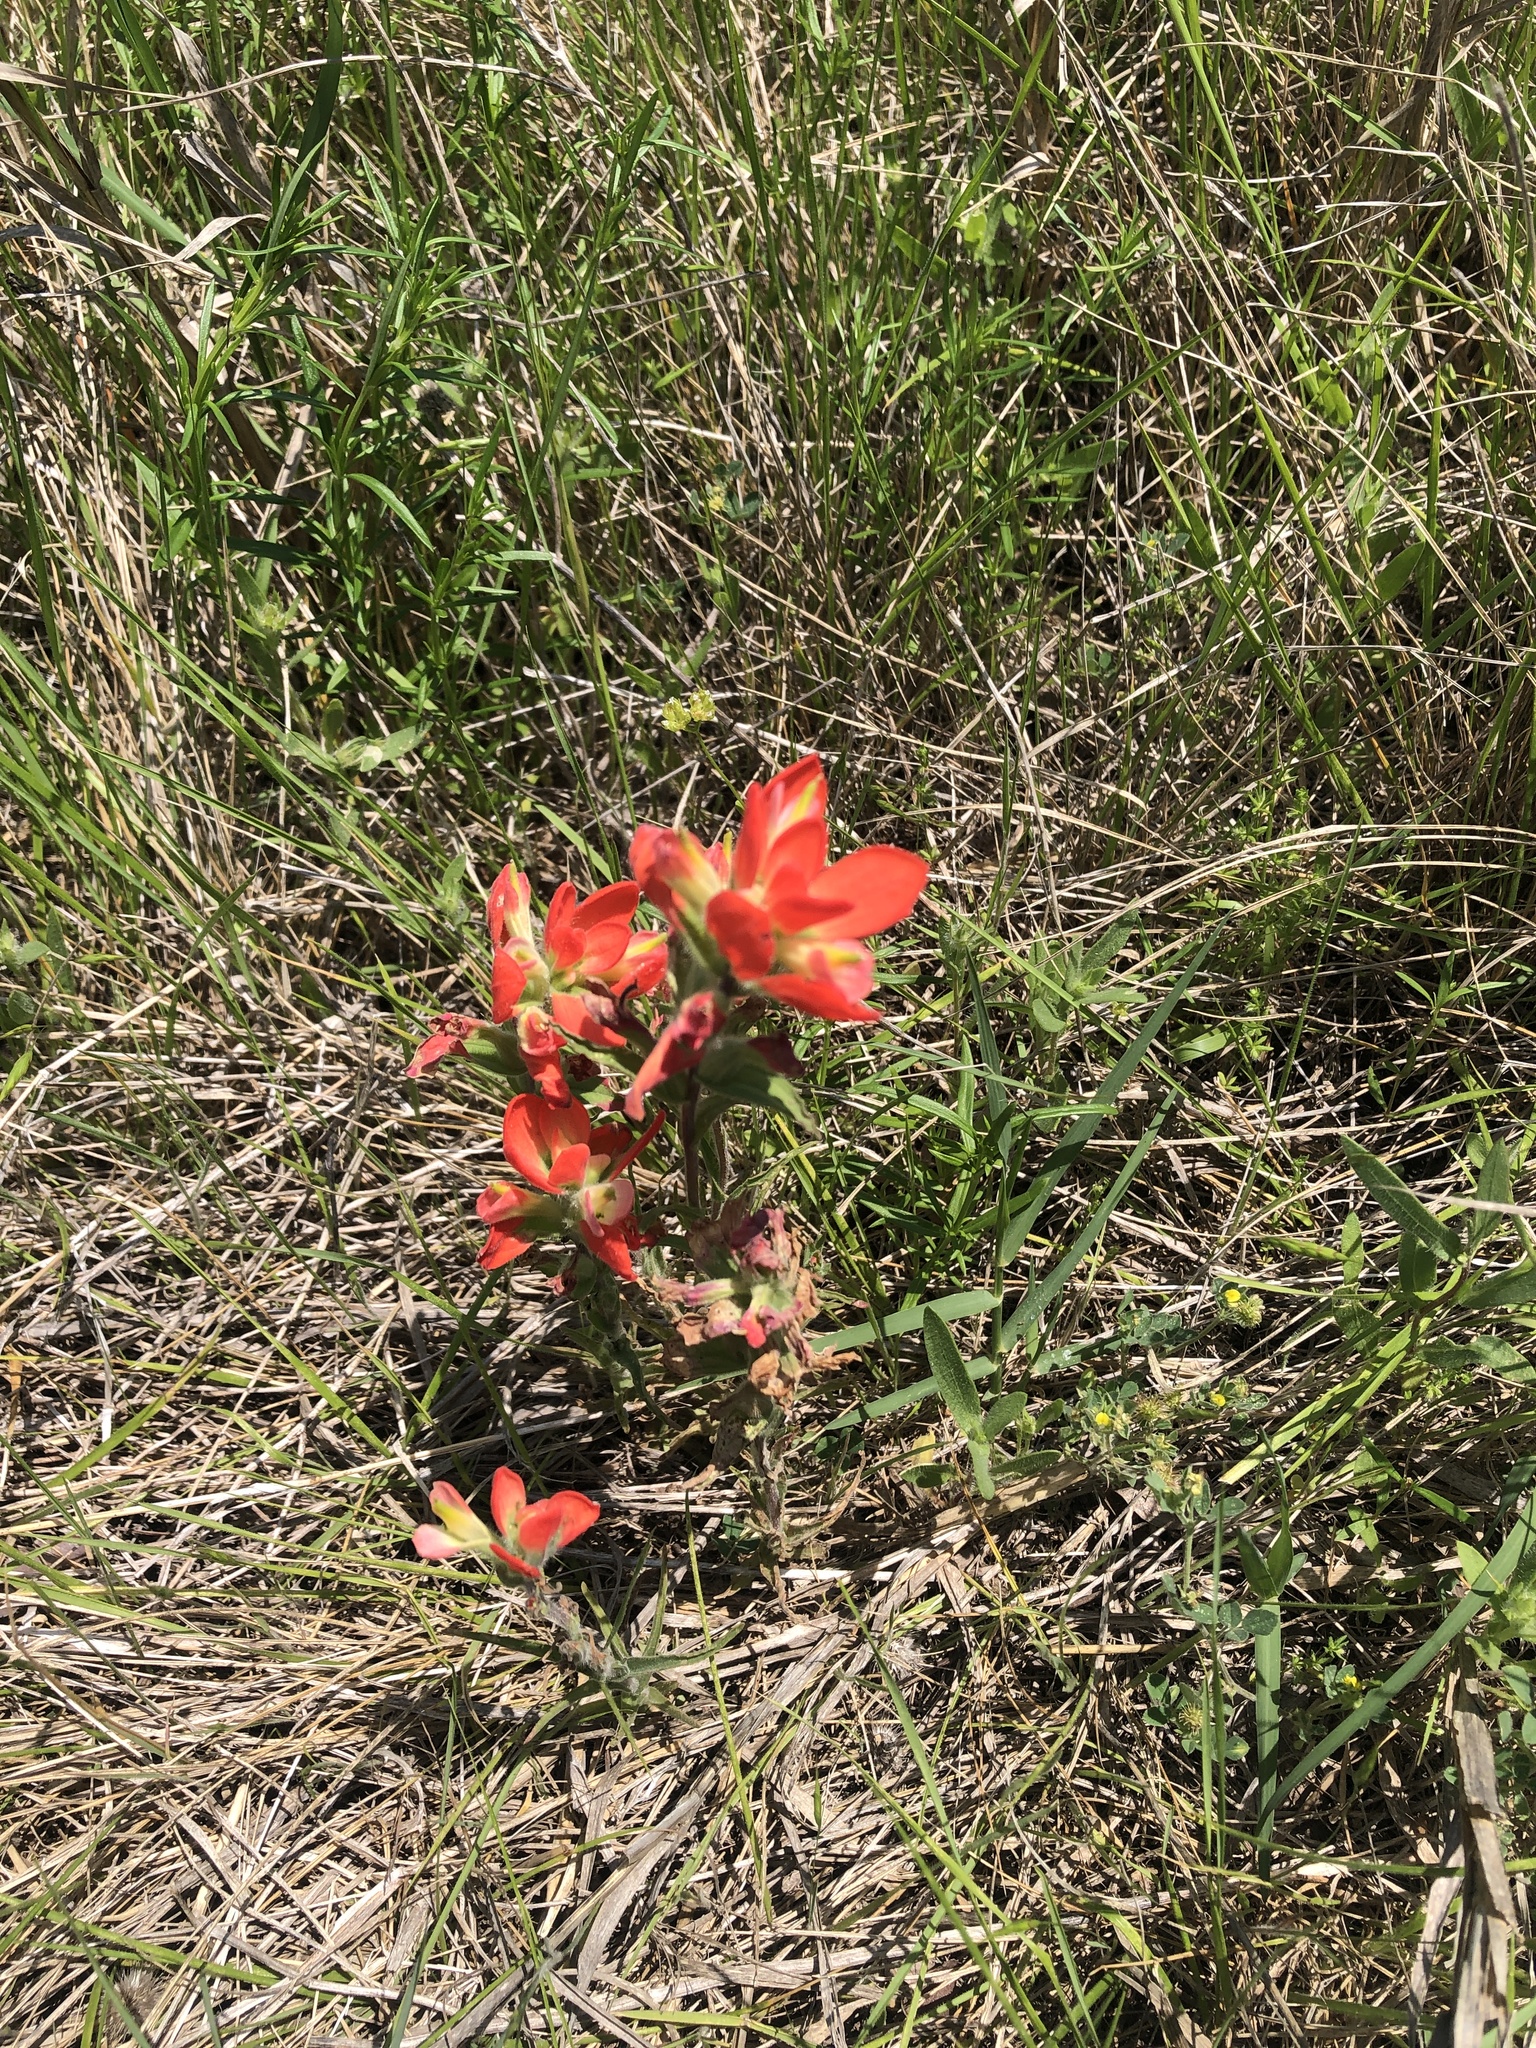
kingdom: Plantae
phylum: Tracheophyta
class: Magnoliopsida
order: Lamiales
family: Orobanchaceae
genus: Castilleja
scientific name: Castilleja indivisa
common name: Texas paintbrush
